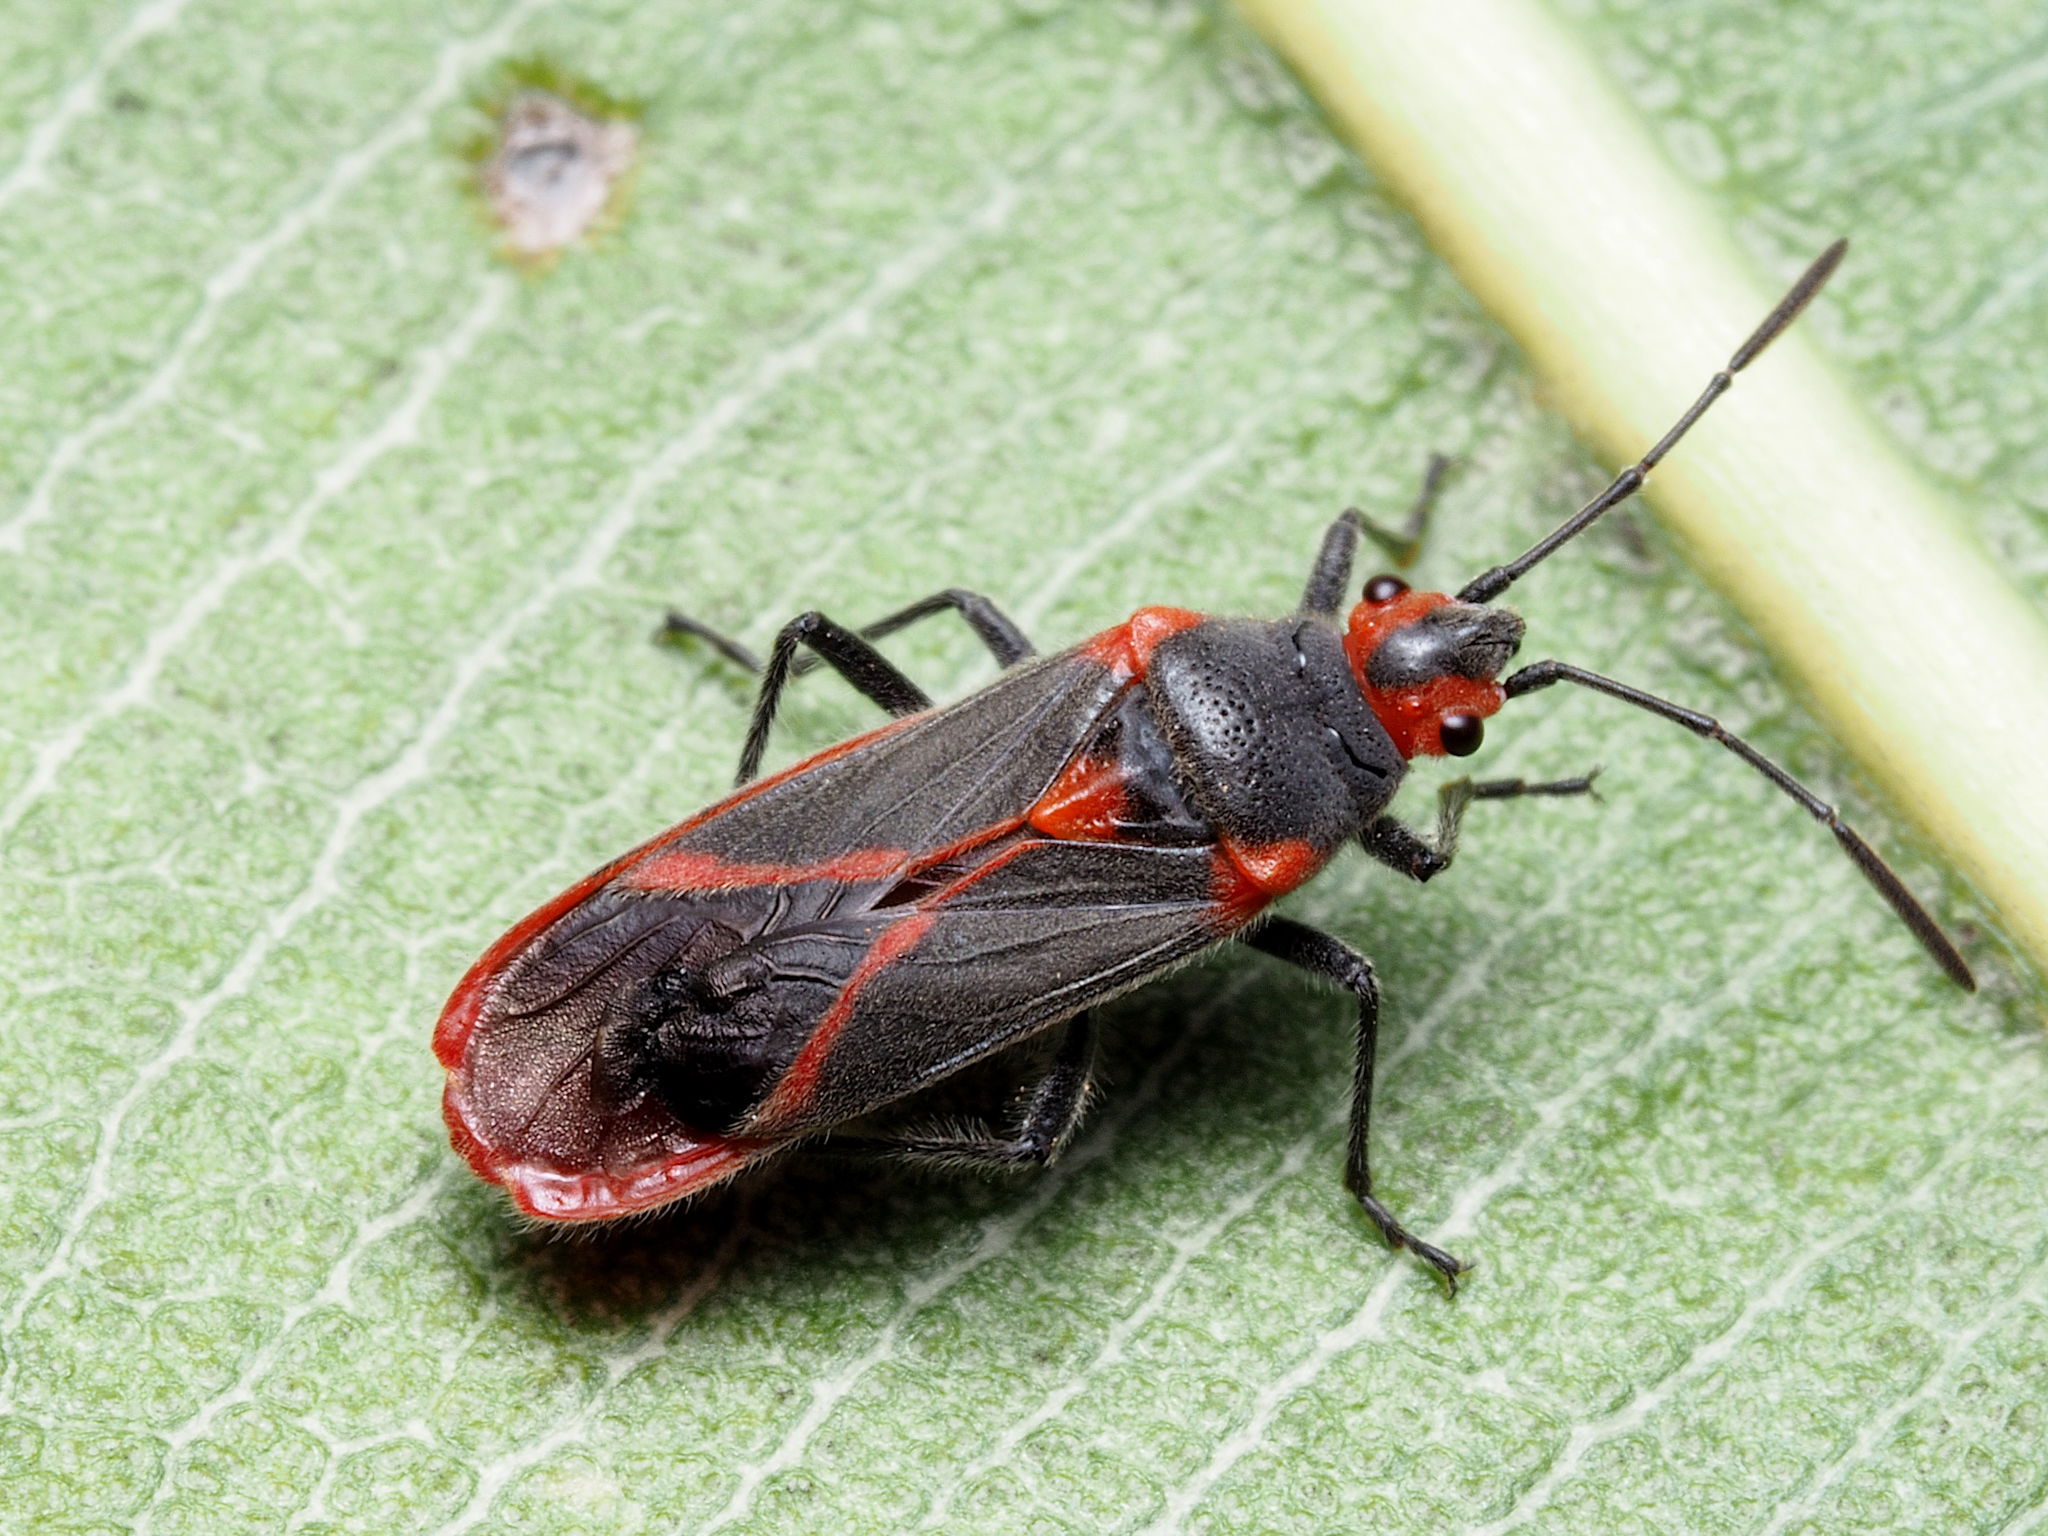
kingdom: Animalia
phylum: Arthropoda
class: Insecta
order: Hemiptera
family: Lygaeidae
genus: Caenocoris
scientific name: Caenocoris nerii
